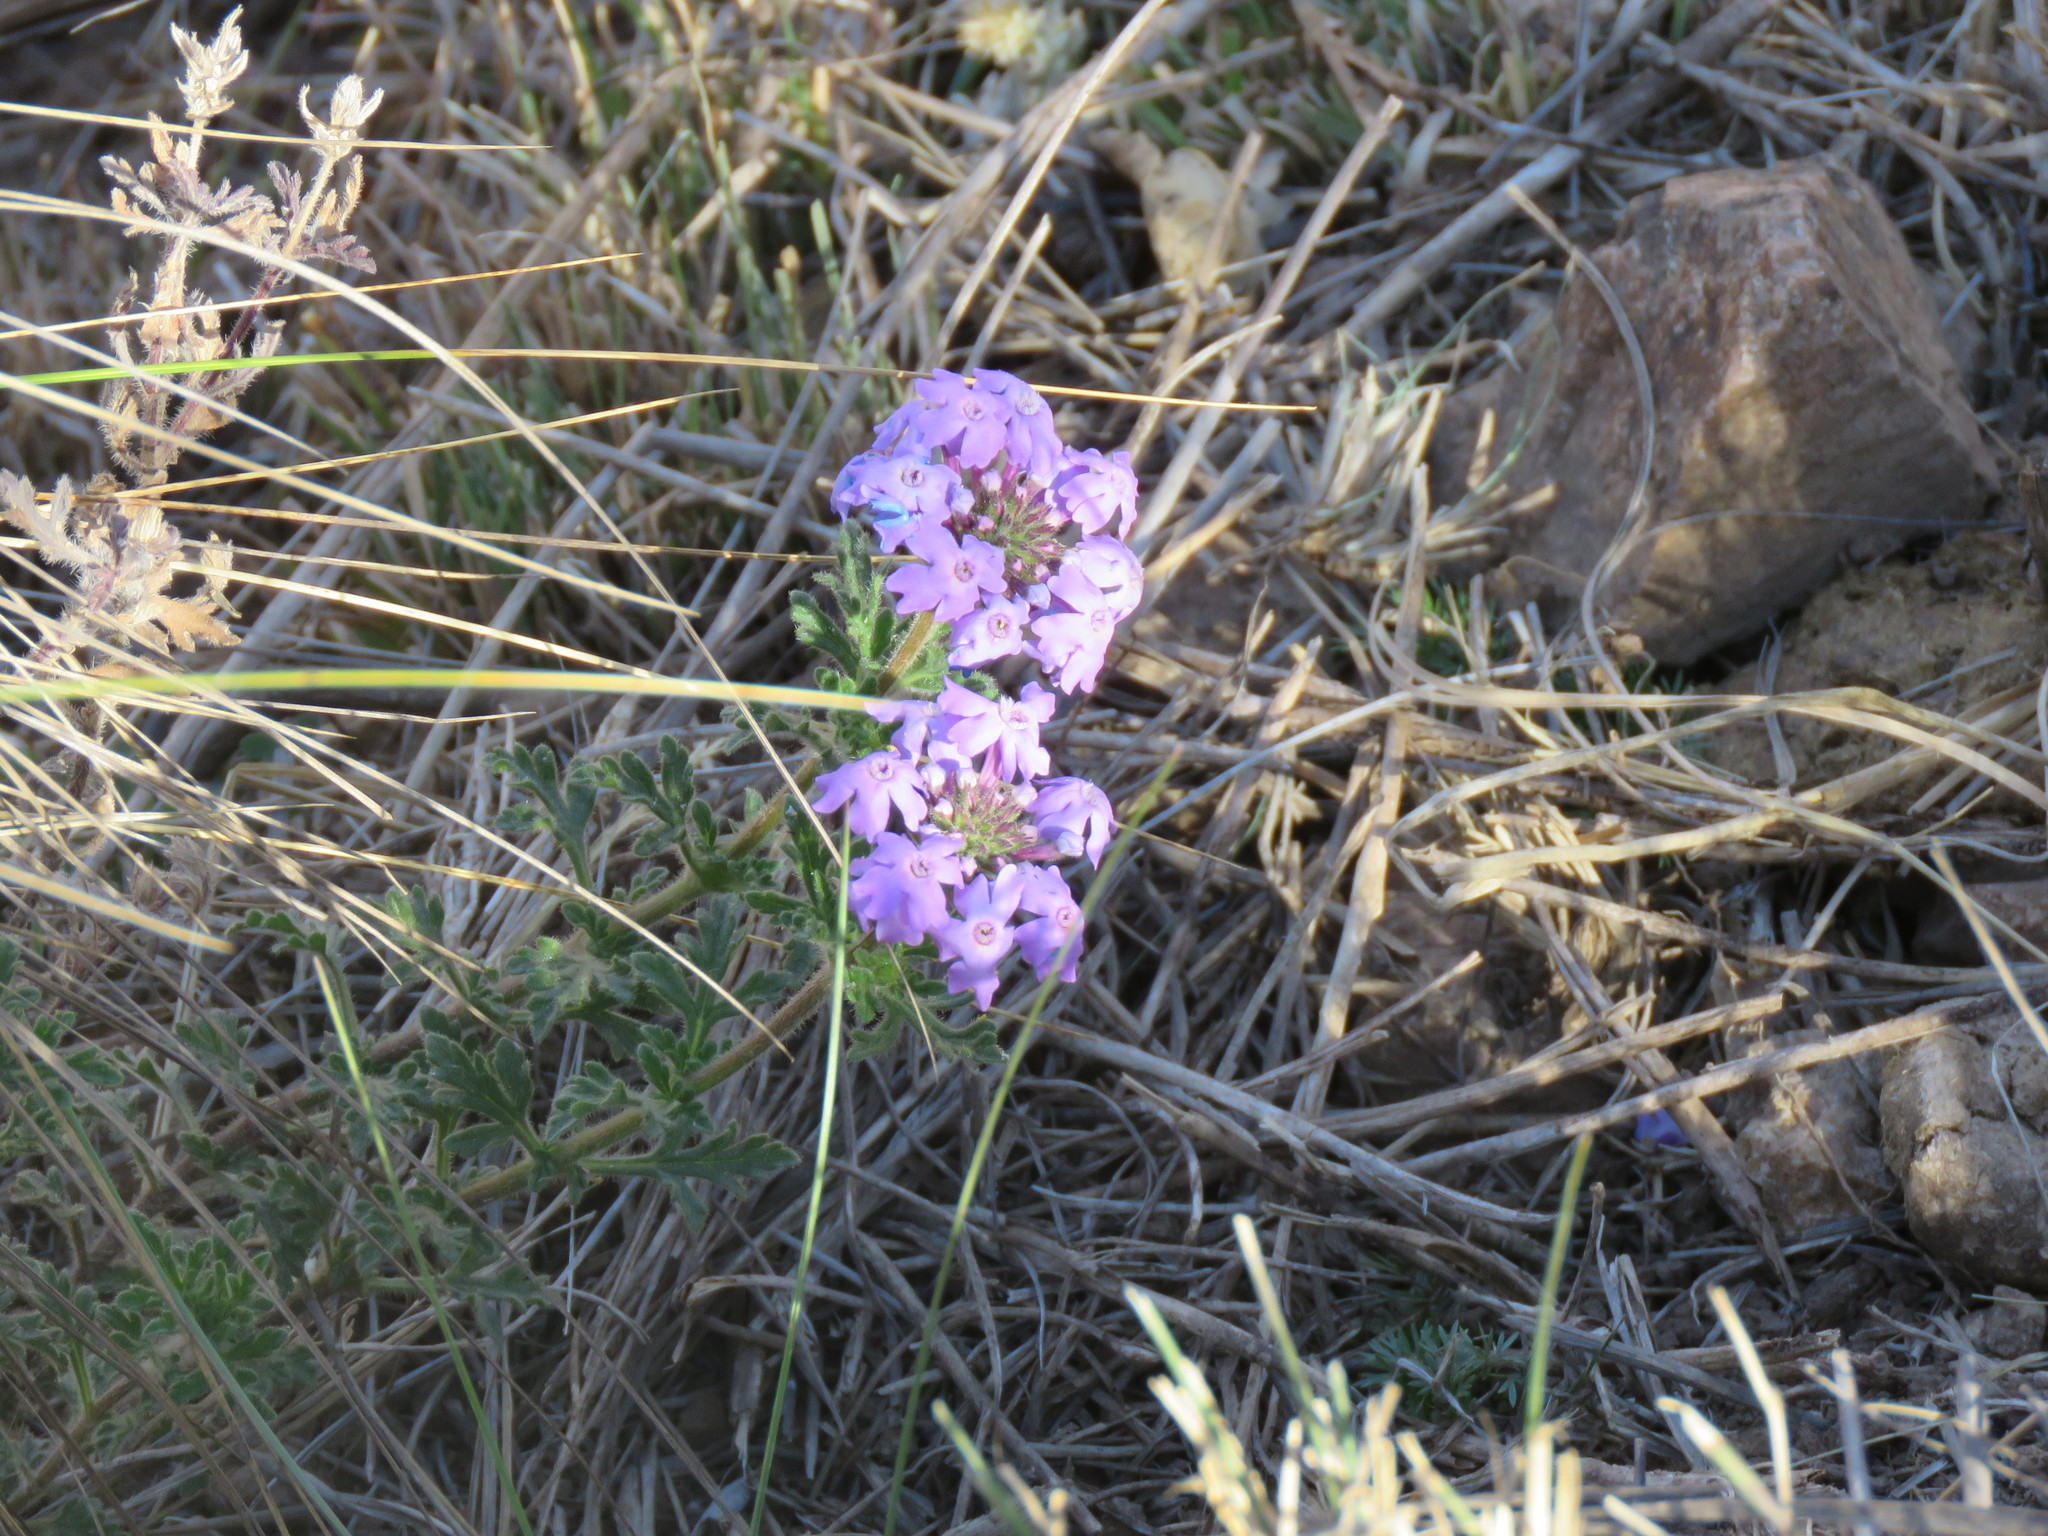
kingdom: Plantae
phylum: Tracheophyta
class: Magnoliopsida
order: Lamiales
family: Verbenaceae
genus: Verbena
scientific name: Verbena dissecta
